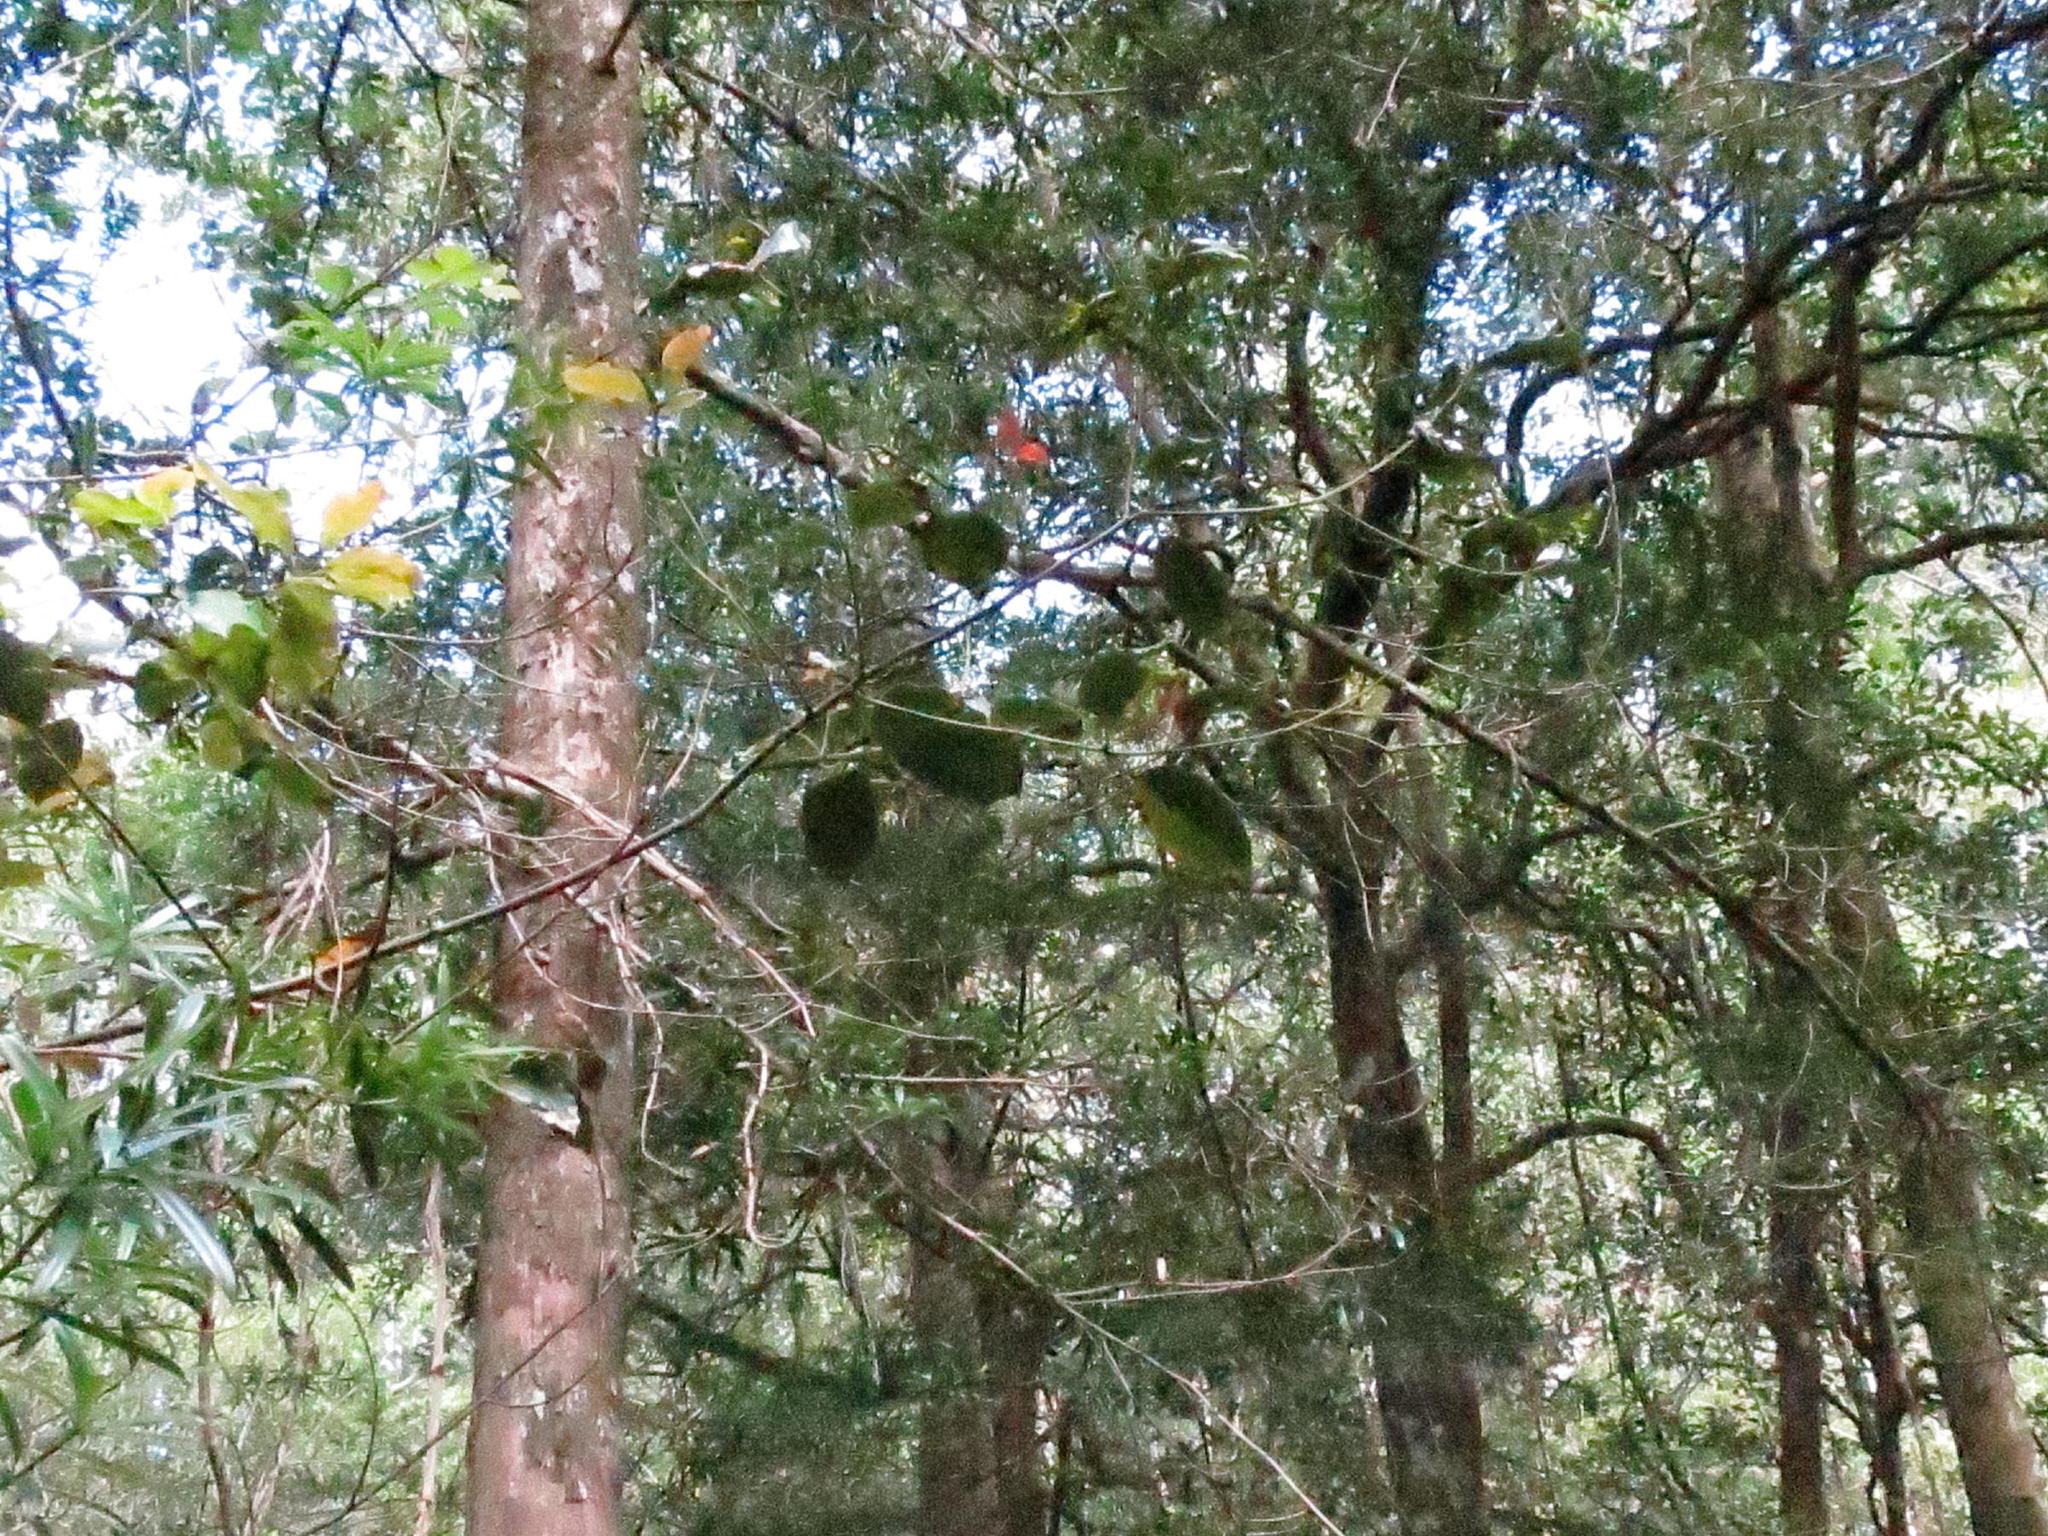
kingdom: Plantae
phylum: Tracheophyta
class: Magnoliopsida
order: Laurales
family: Lauraceae
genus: Ocotea
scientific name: Ocotea bullata
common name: Black stinkwood
